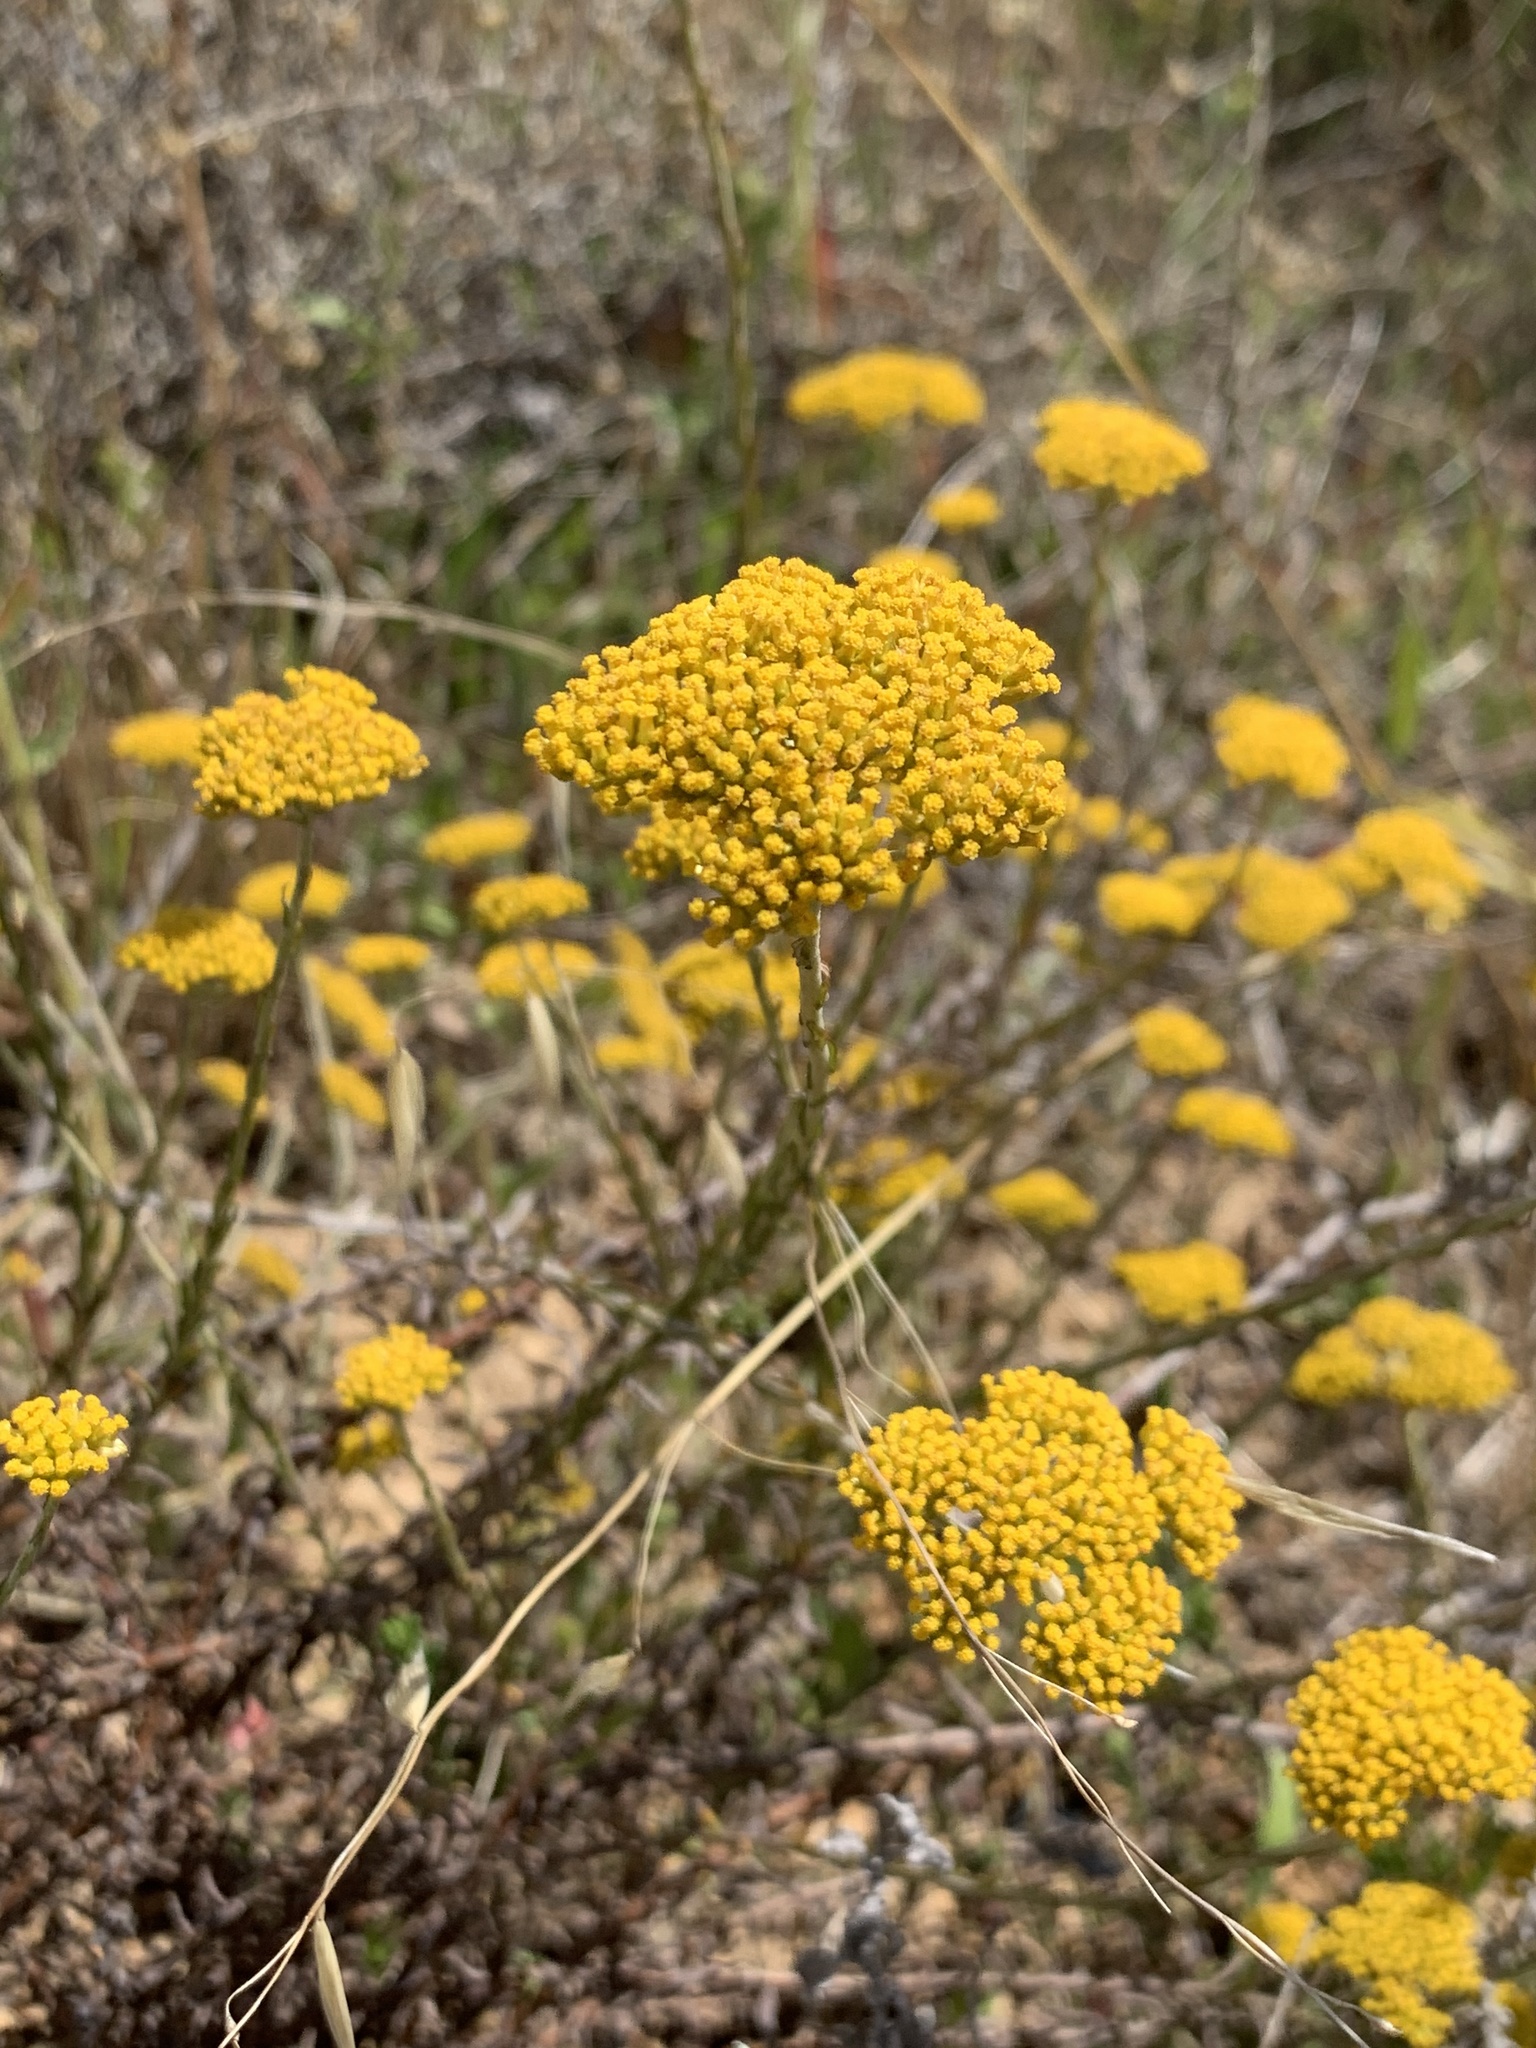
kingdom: Plantae
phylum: Tracheophyta
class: Magnoliopsida
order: Asterales
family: Asteraceae
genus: Helichrysum
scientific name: Helichrysum cymosum
